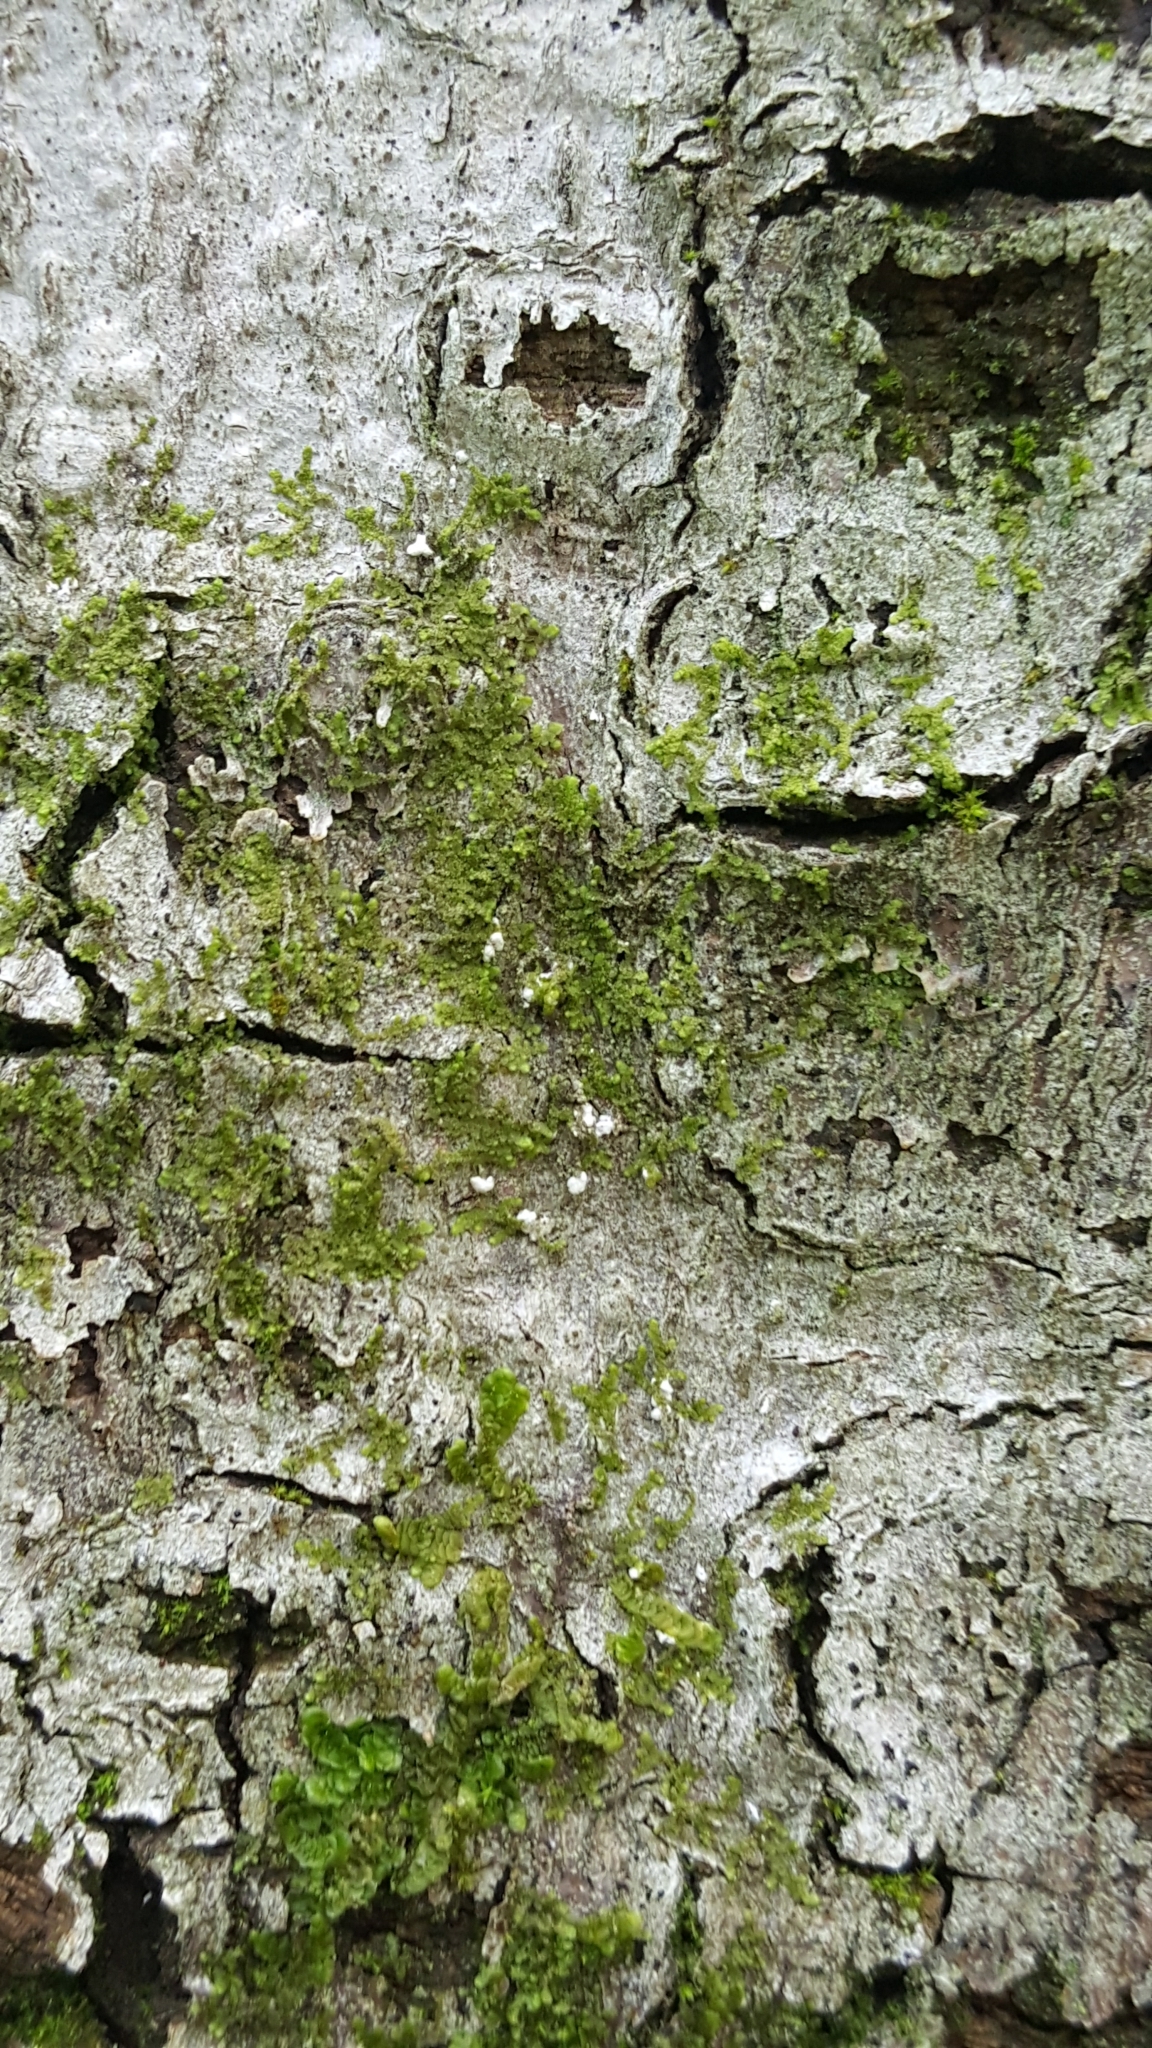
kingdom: Animalia
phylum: Arthropoda
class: Insecta
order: Hemiptera
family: Eriococcidae
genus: Cryptococcus
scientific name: Cryptococcus fagisuga
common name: Beech scale
